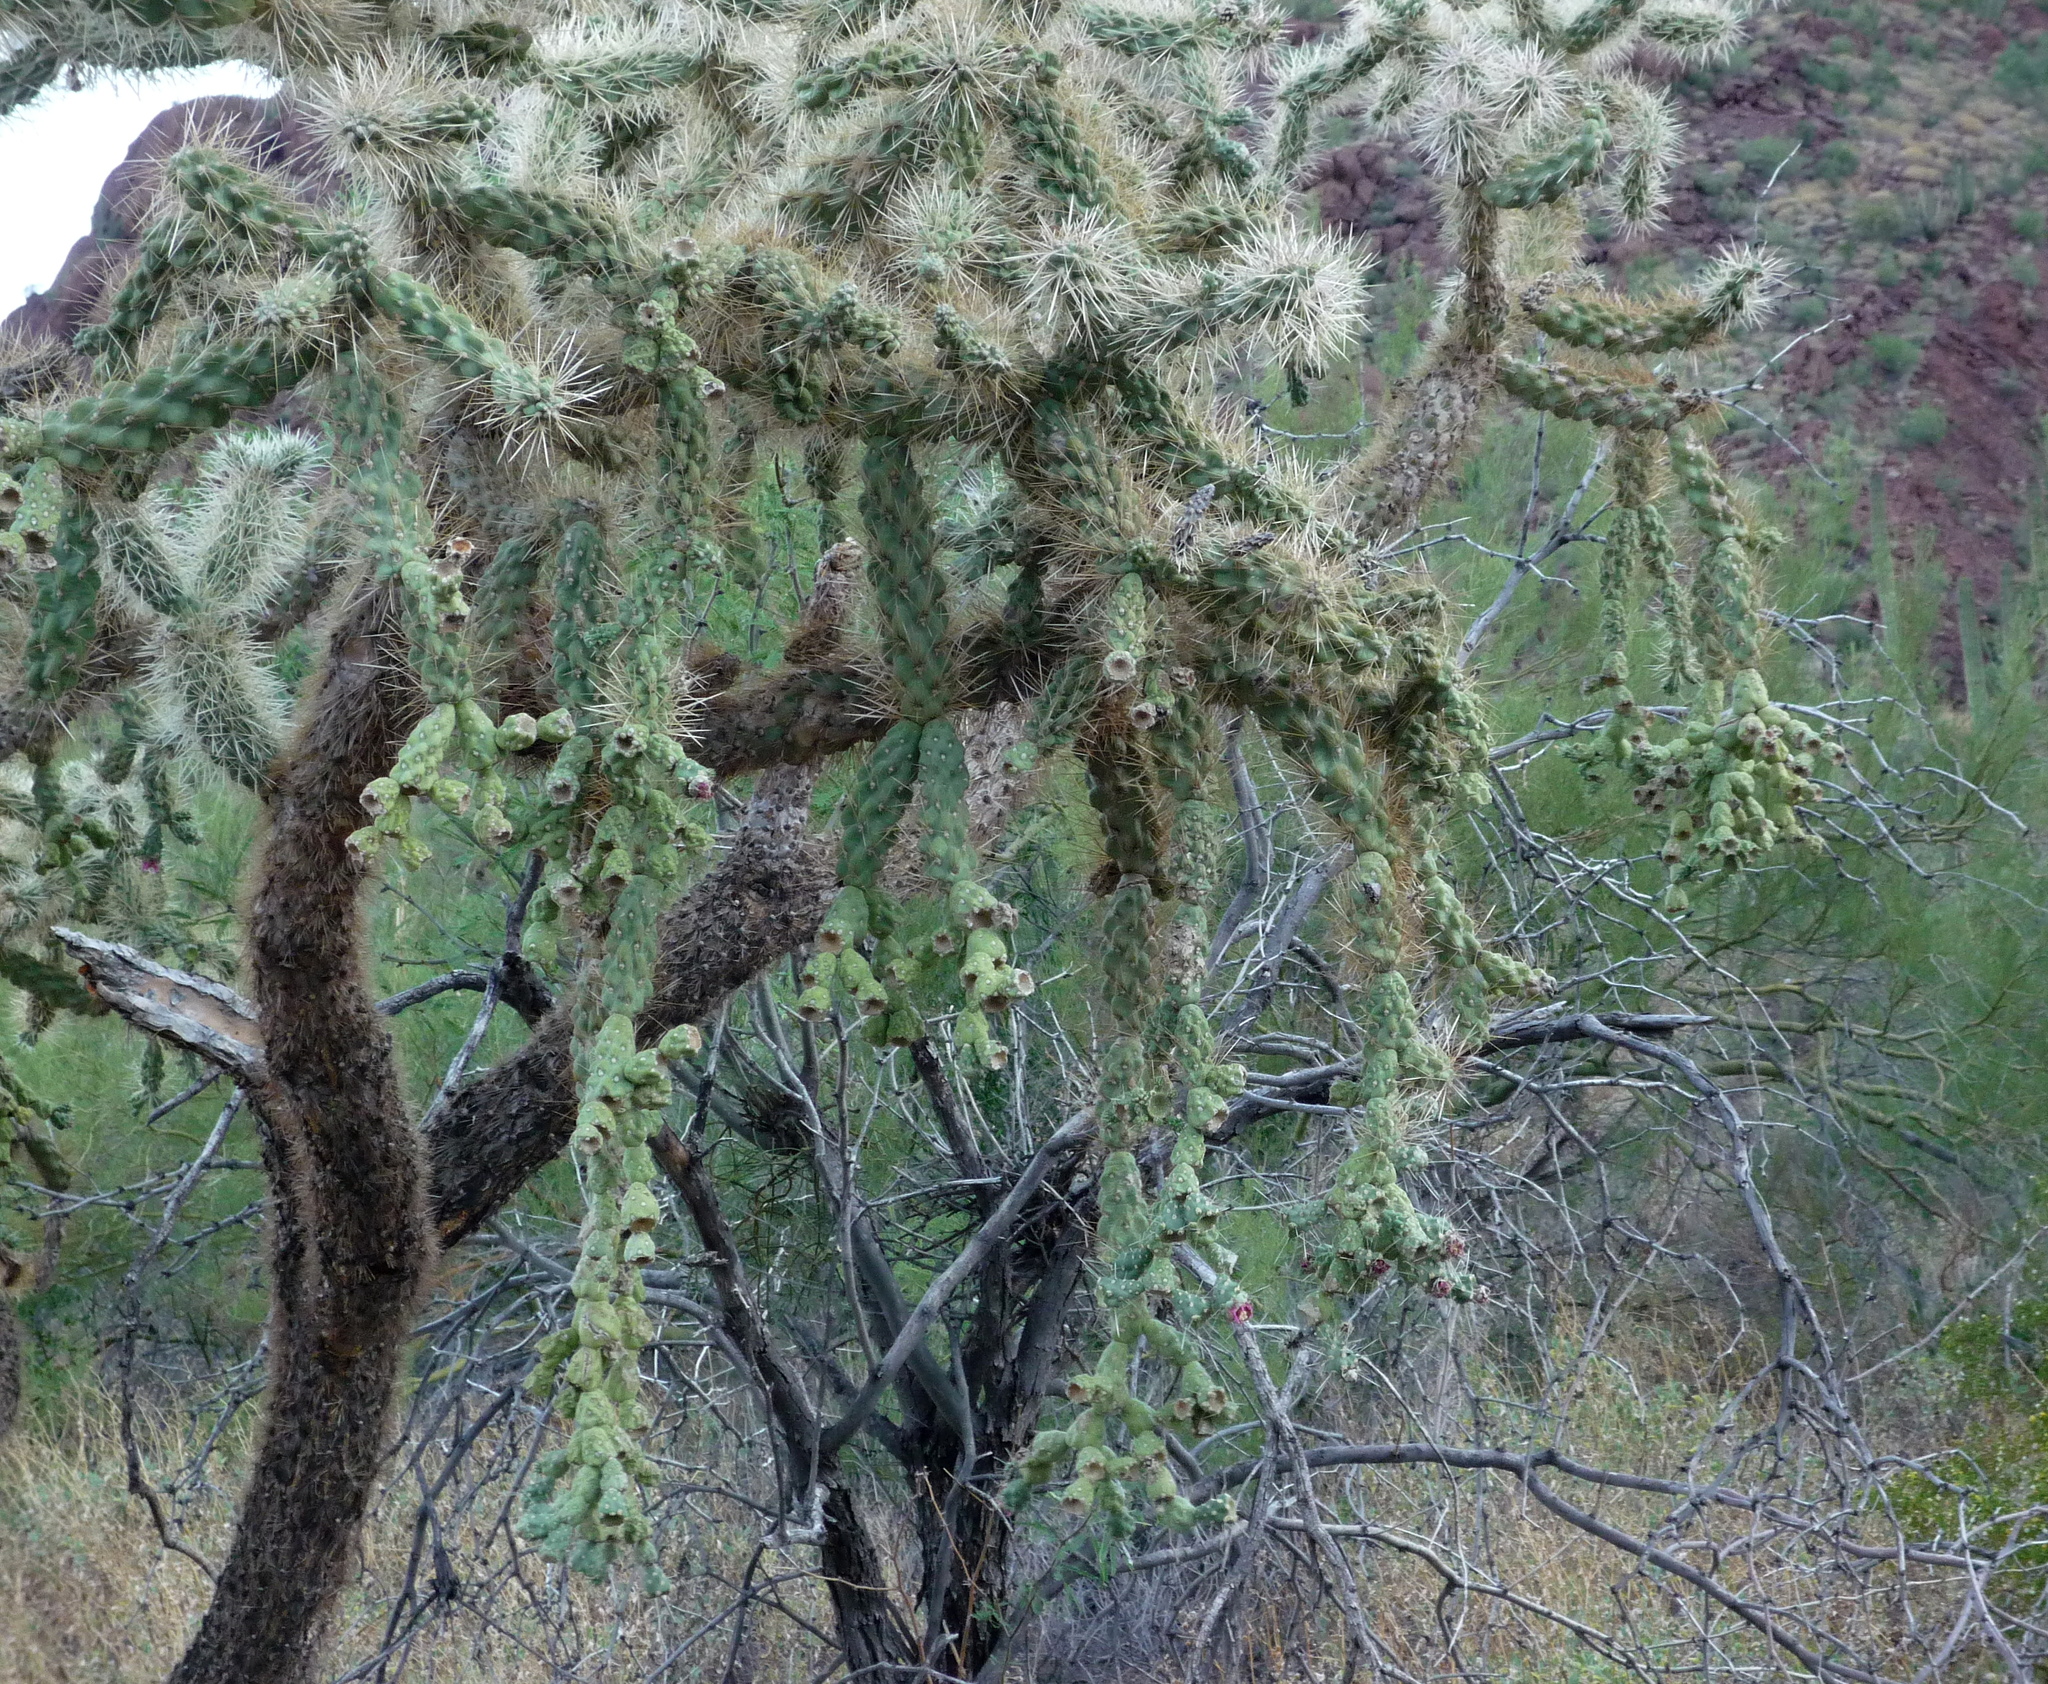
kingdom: Plantae
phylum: Tracheophyta
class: Magnoliopsida
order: Caryophyllales
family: Cactaceae
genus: Cylindropuntia
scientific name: Cylindropuntia fulgida
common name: Jumping cholla
